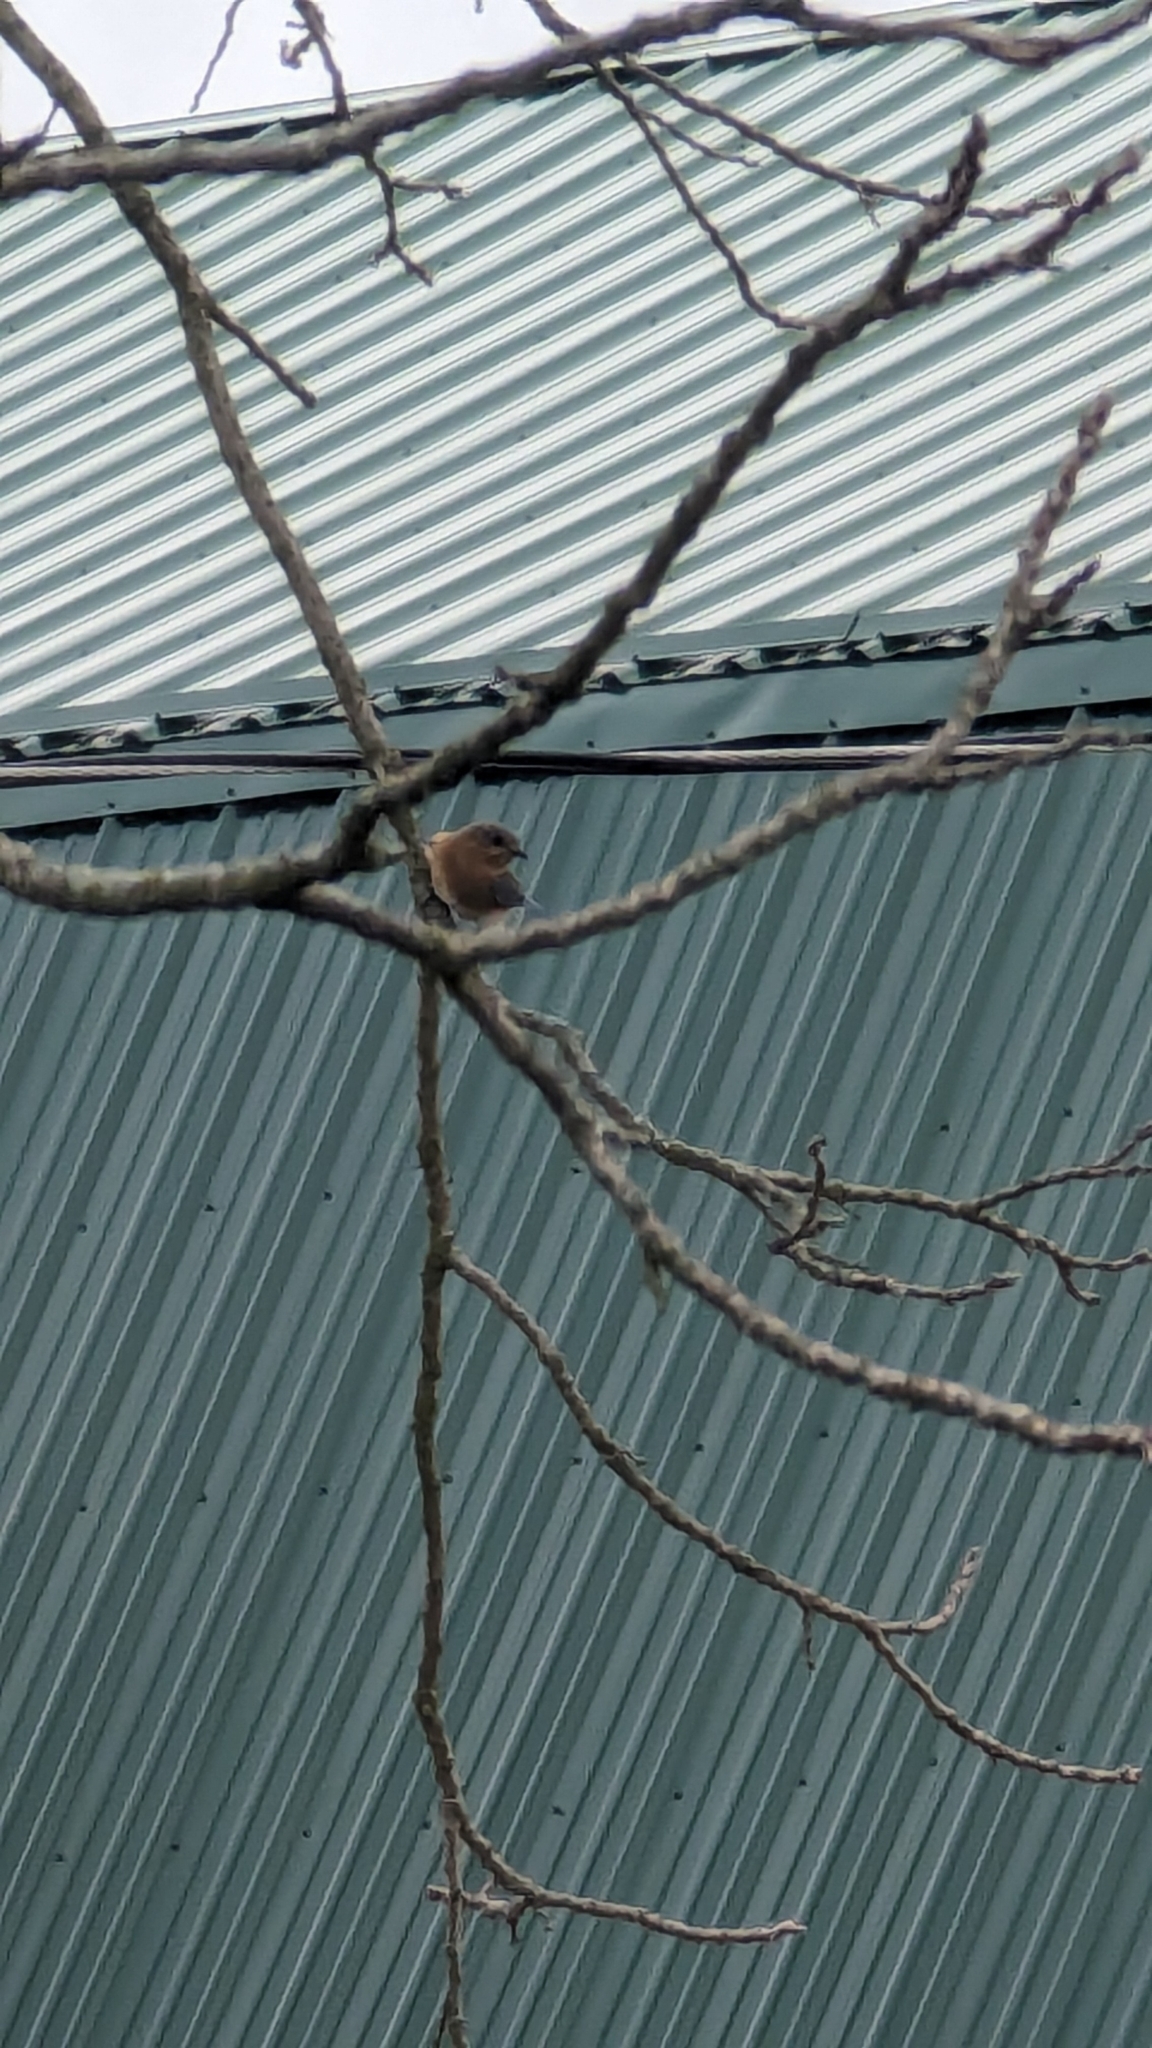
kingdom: Animalia
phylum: Chordata
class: Aves
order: Passeriformes
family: Turdidae
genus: Sialia
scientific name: Sialia sialis
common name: Eastern bluebird
